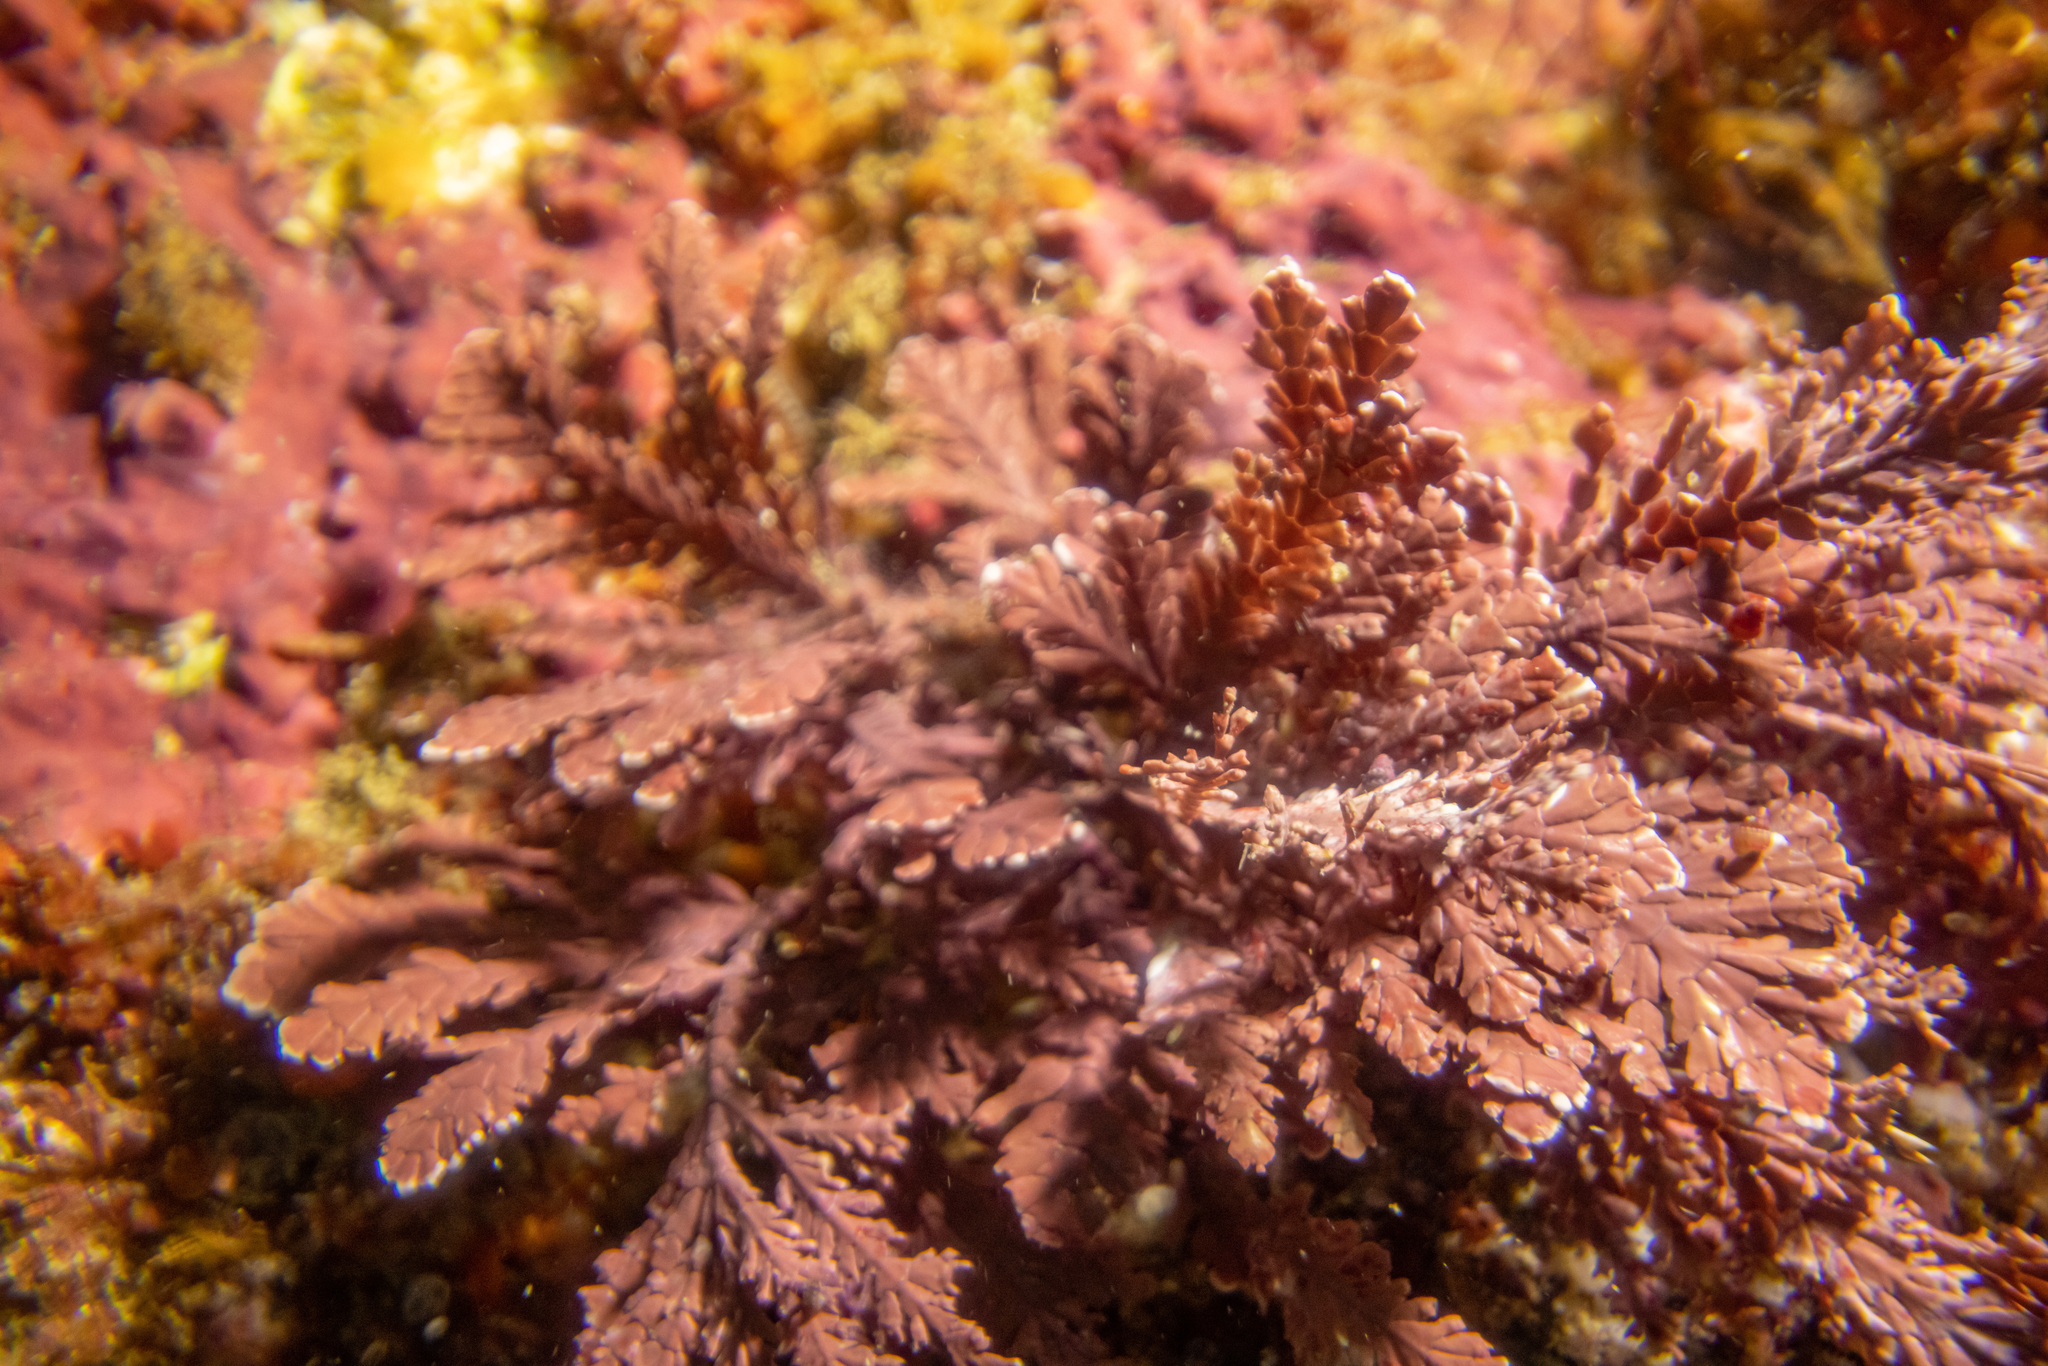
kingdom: Plantae
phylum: Rhodophyta
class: Florideophyceae
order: Corallinales
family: Corallinaceae
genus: Arthrocardia
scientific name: Arthrocardia corymbosa
